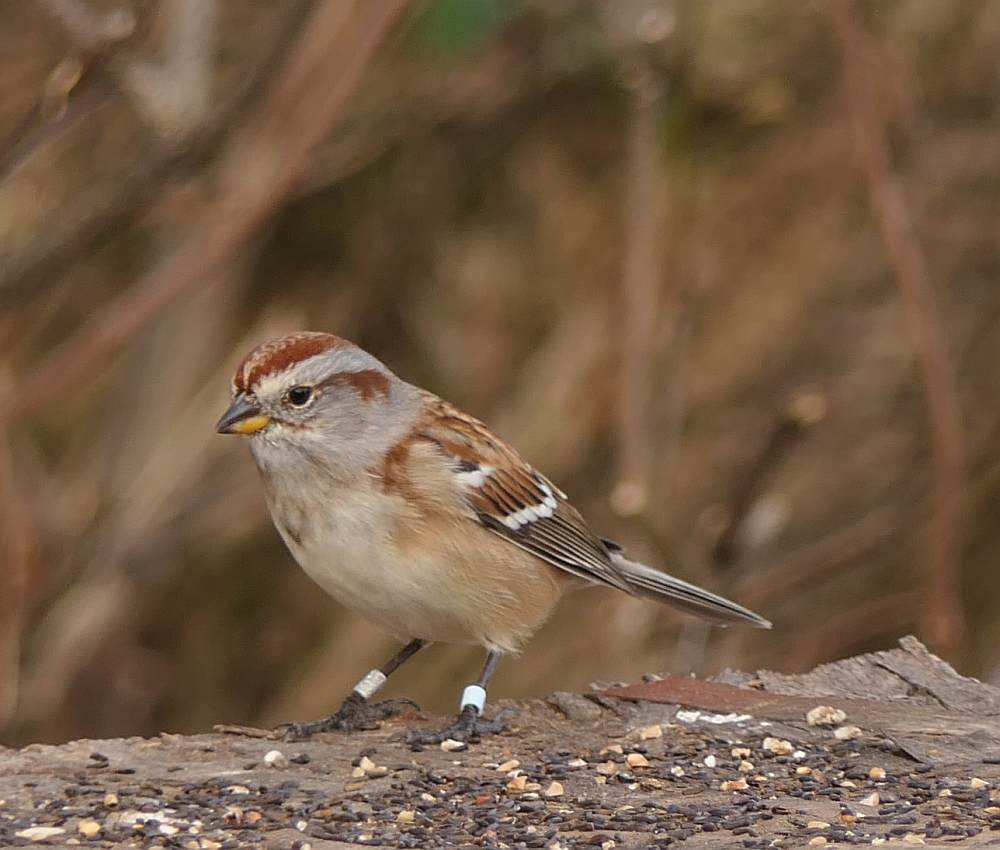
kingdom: Animalia
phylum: Chordata
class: Aves
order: Passeriformes
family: Passerellidae
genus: Spizelloides
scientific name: Spizelloides arborea
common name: American tree sparrow
